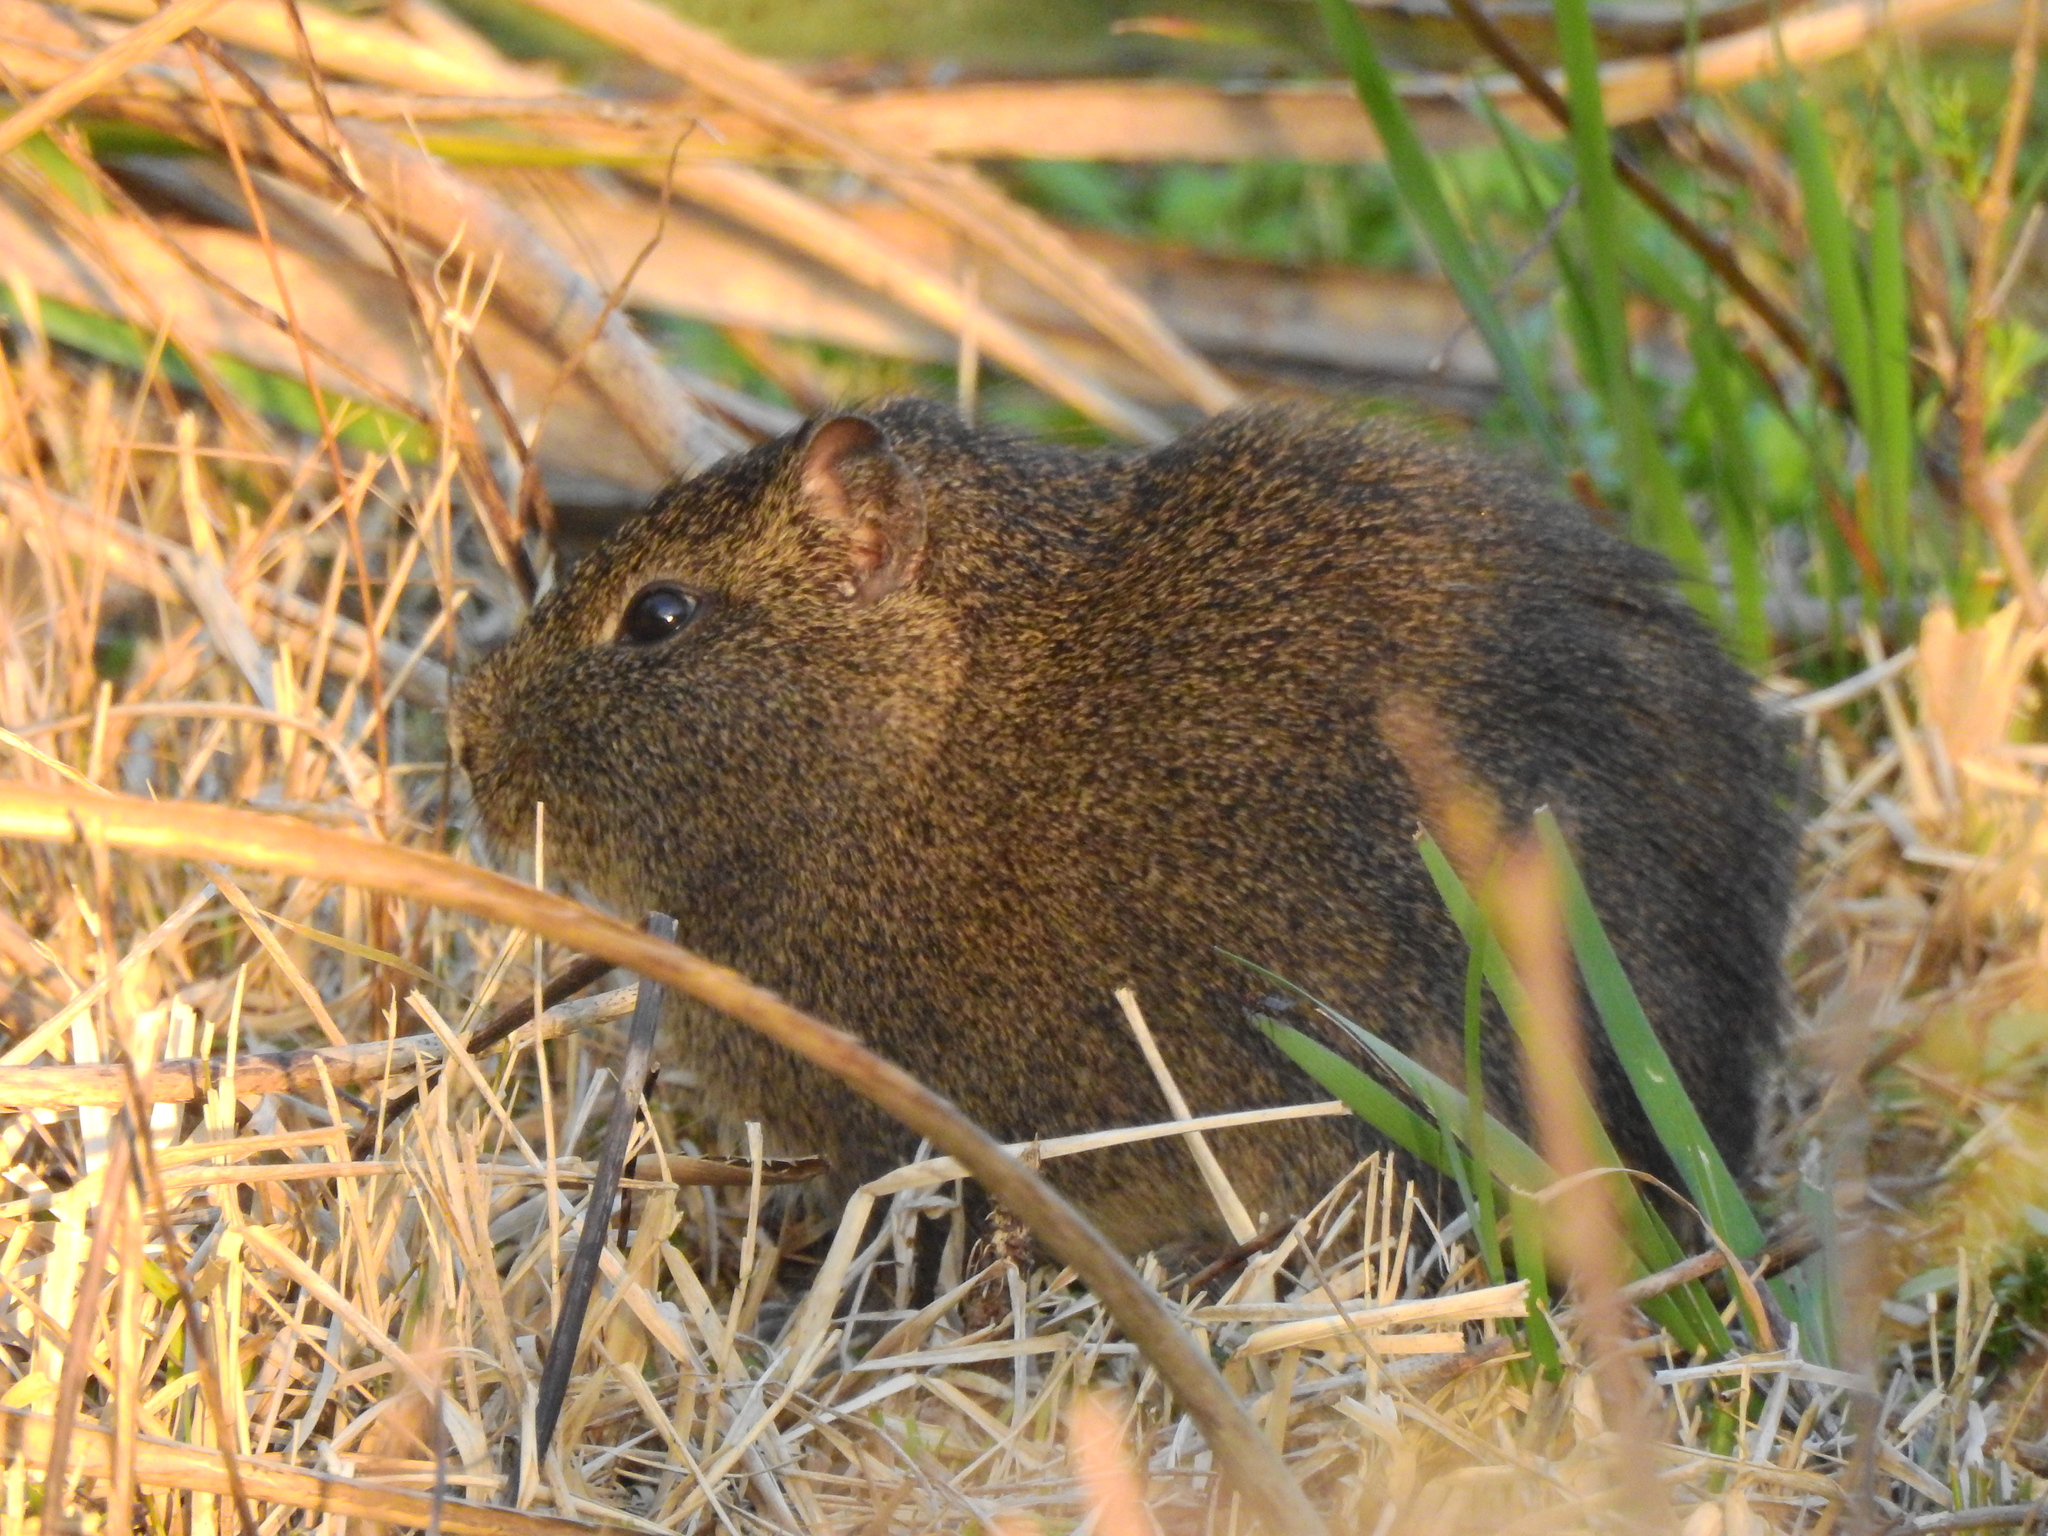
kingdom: Animalia
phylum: Chordata
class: Mammalia
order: Rodentia
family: Caviidae
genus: Cavia
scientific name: Cavia aperea
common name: Brazilian guinea pig
